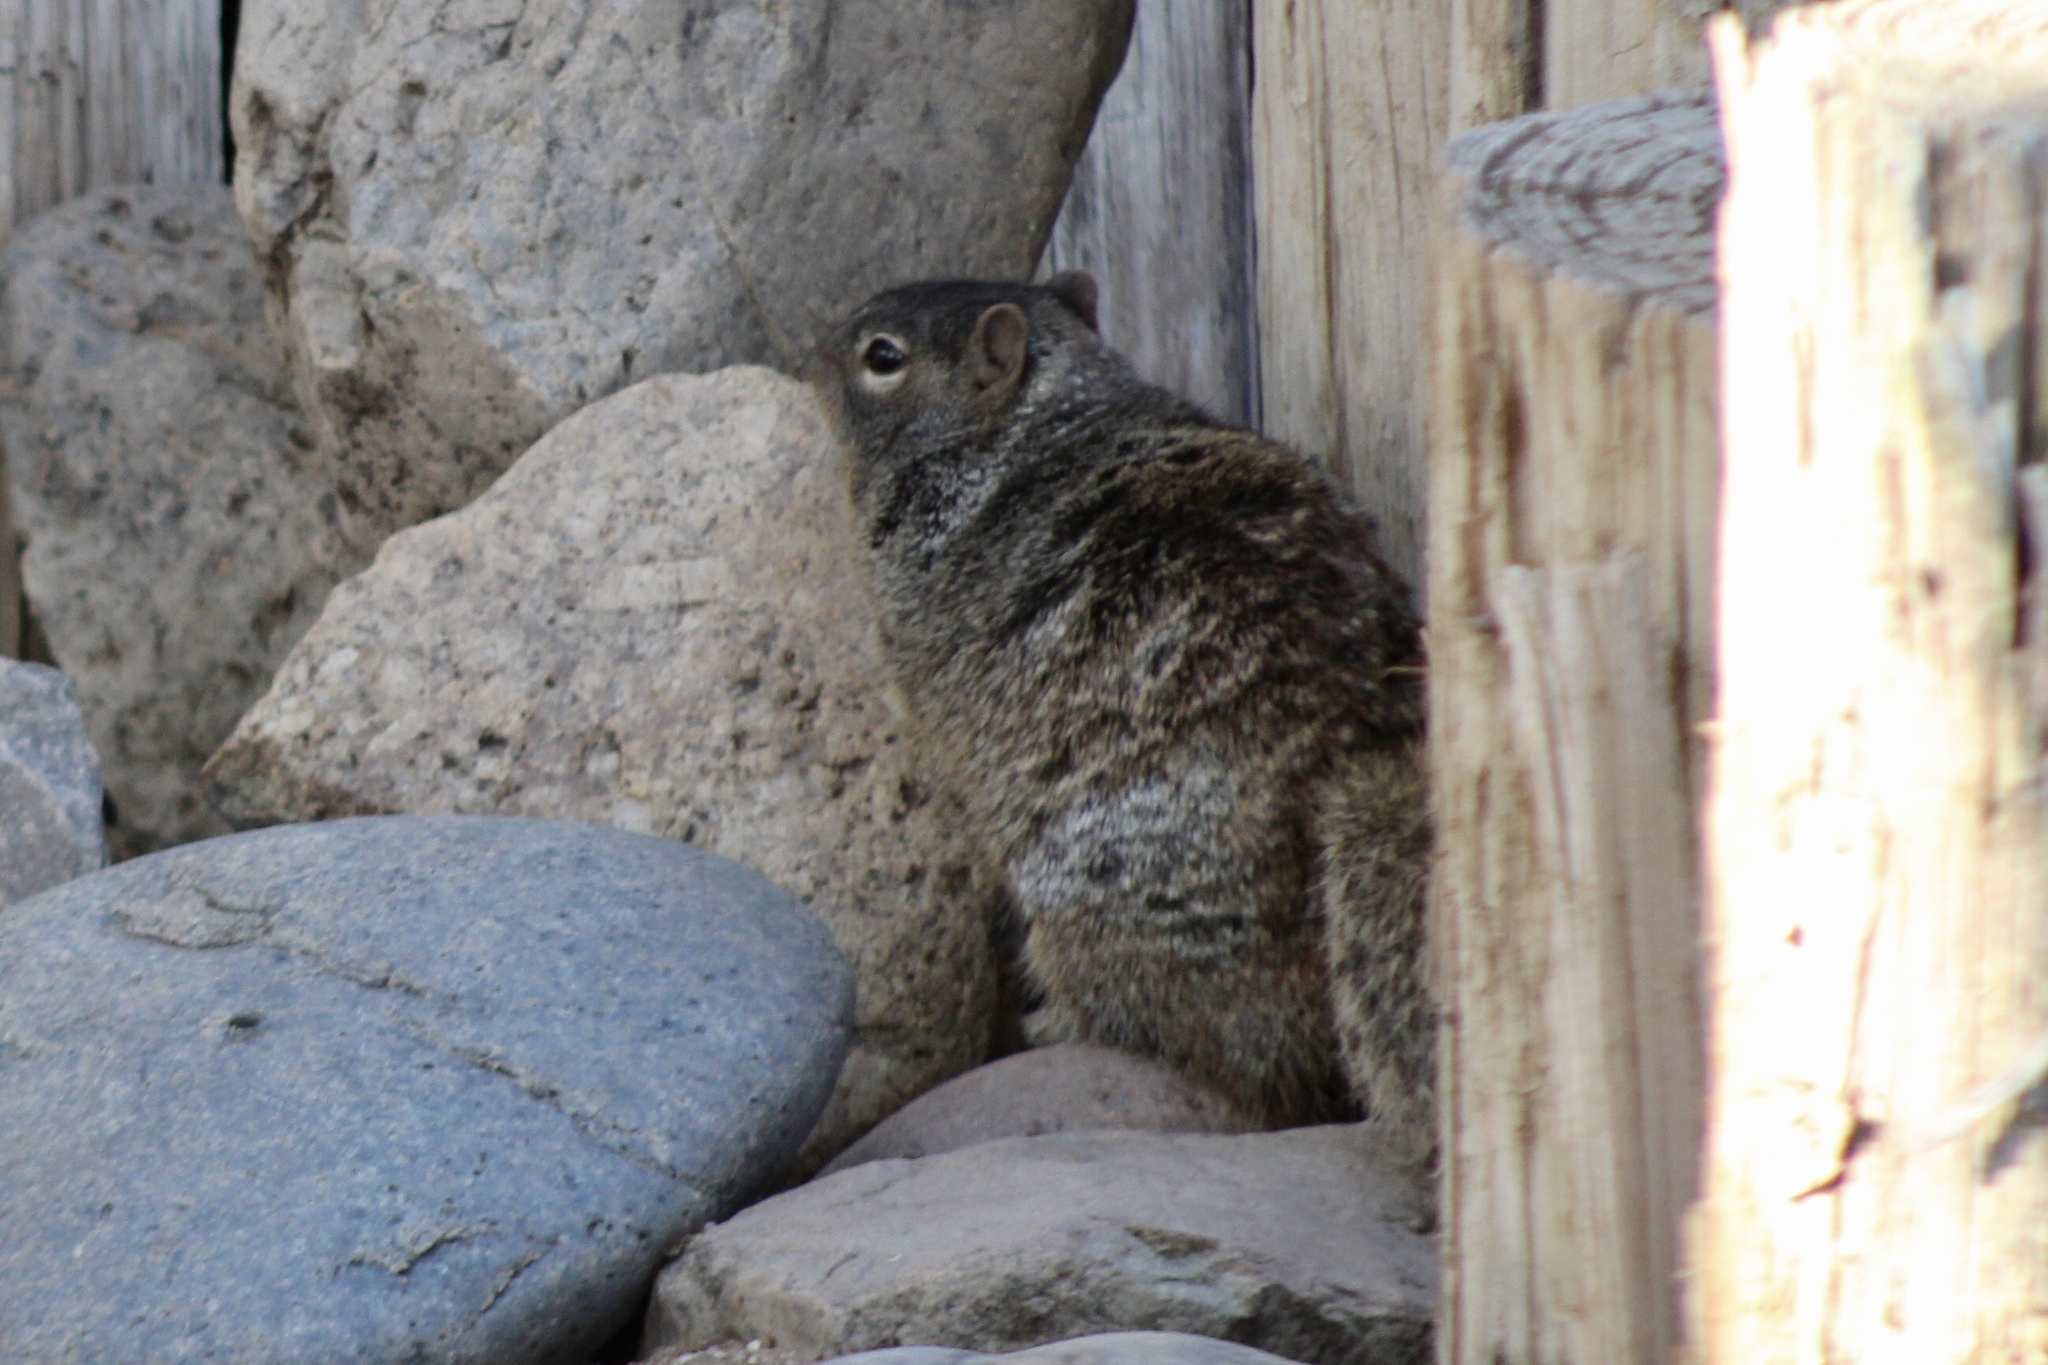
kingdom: Animalia
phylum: Chordata
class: Mammalia
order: Rodentia
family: Sciuridae
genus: Otospermophilus
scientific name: Otospermophilus variegatus
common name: Rock squirrel
